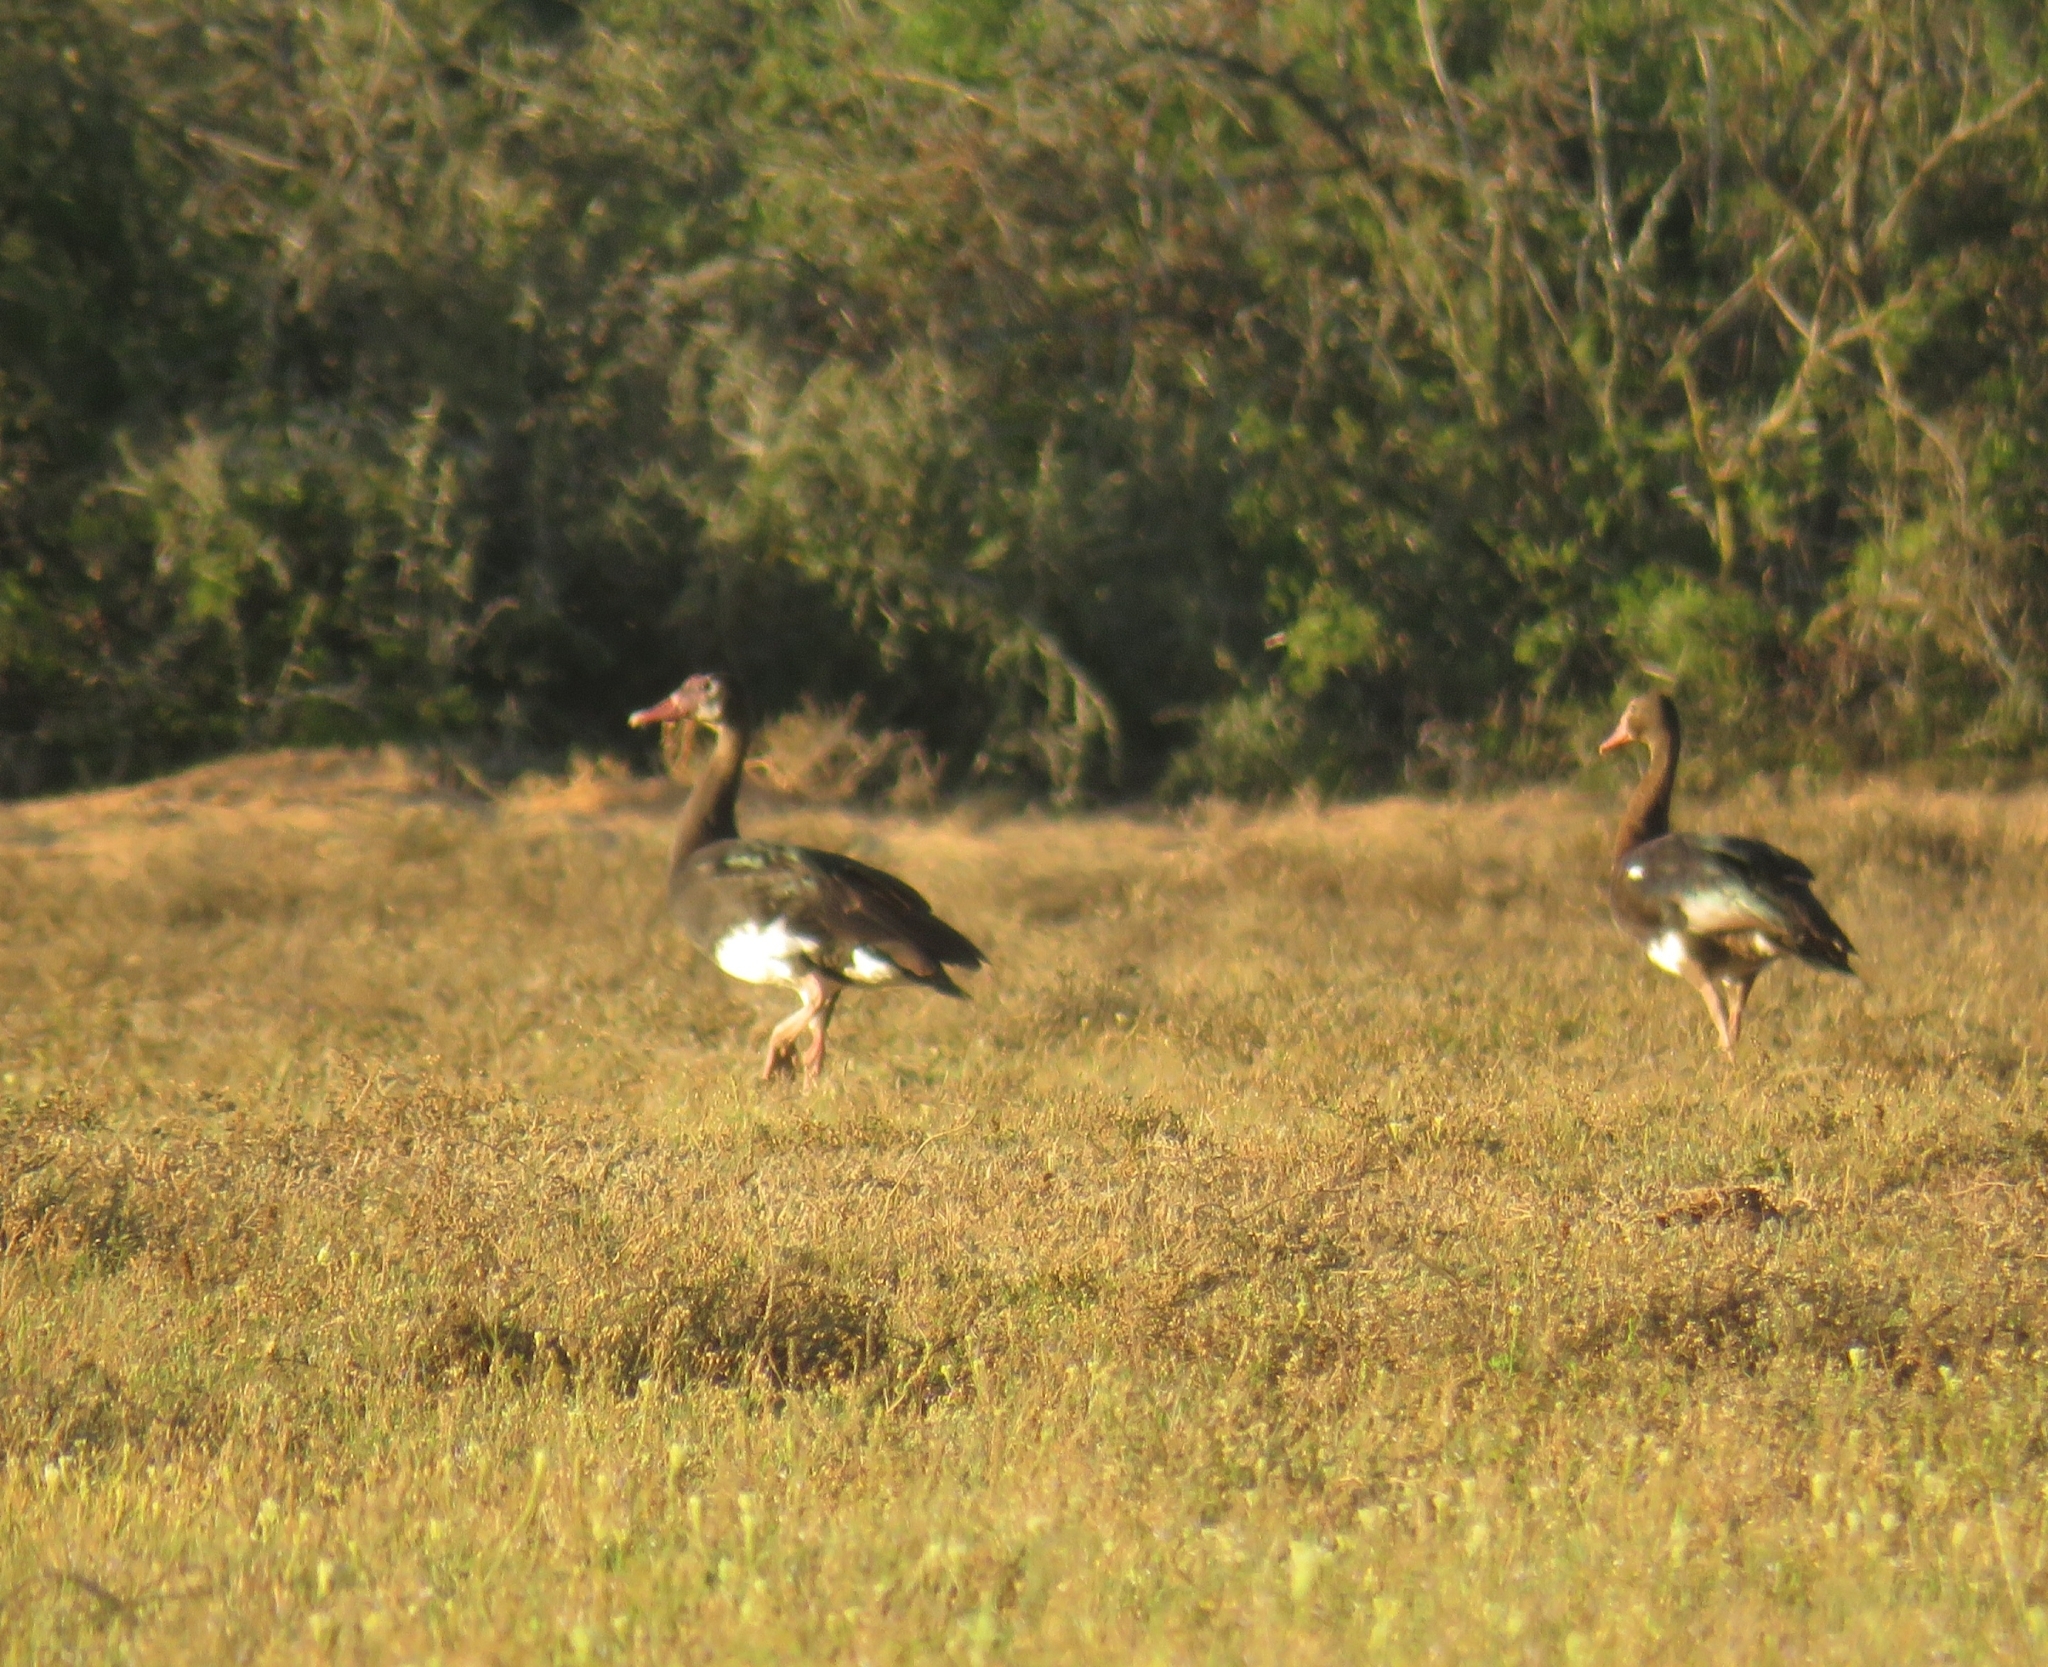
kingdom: Animalia
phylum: Chordata
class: Aves
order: Anseriformes
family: Anatidae
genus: Plectropterus
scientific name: Plectropterus gambensis
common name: Spur-winged goose
